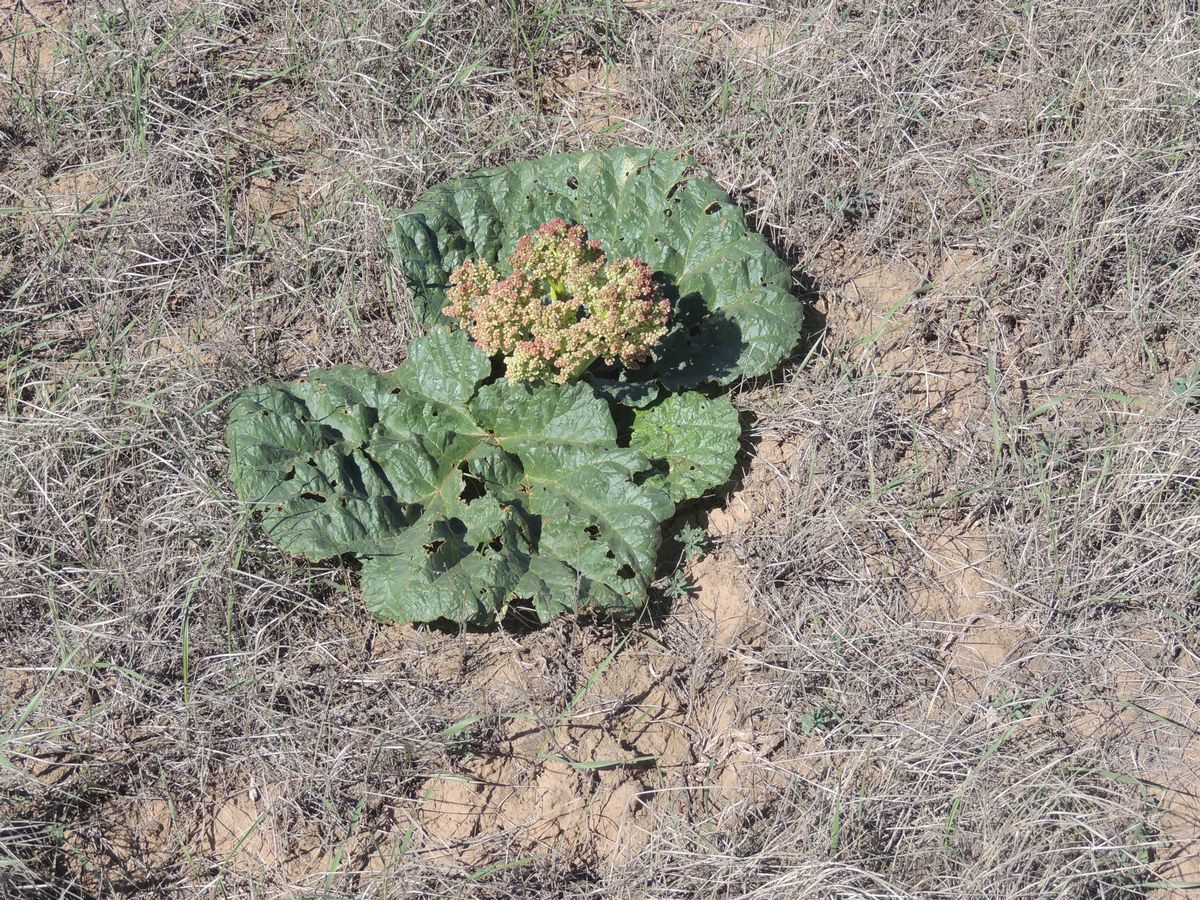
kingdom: Plantae
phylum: Tracheophyta
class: Magnoliopsida
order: Caryophyllales
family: Polygonaceae
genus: Rheum
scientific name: Rheum tataricum
